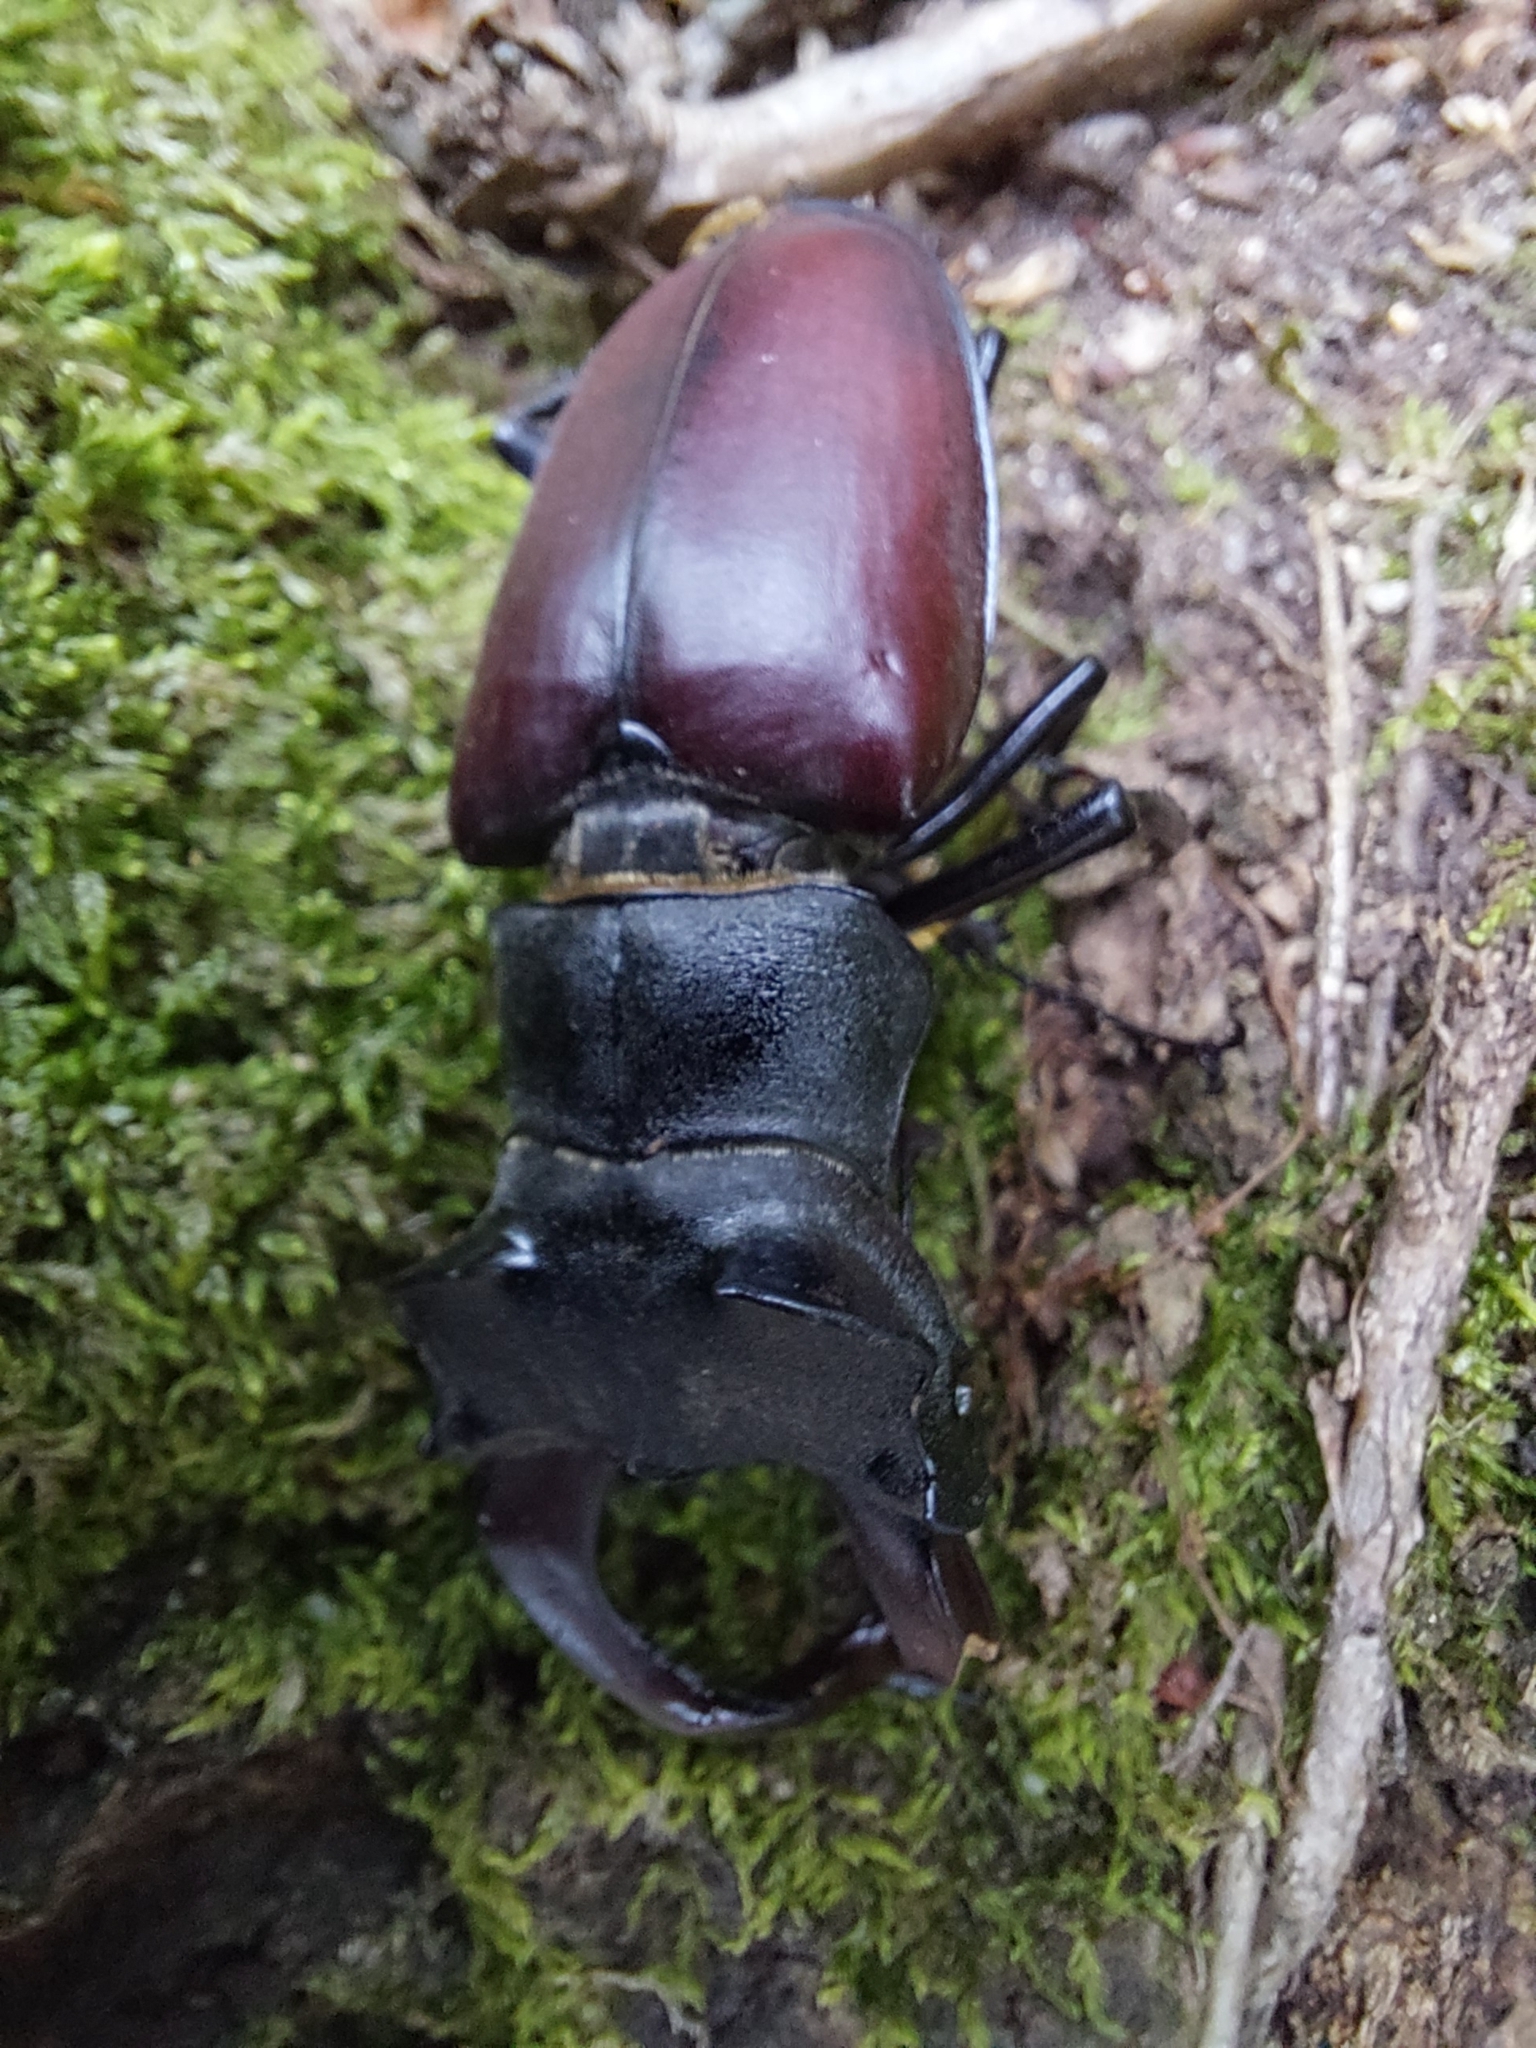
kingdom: Animalia
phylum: Arthropoda
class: Insecta
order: Coleoptera
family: Lucanidae
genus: Lucanus
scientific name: Lucanus cervus
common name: Stag beetle
